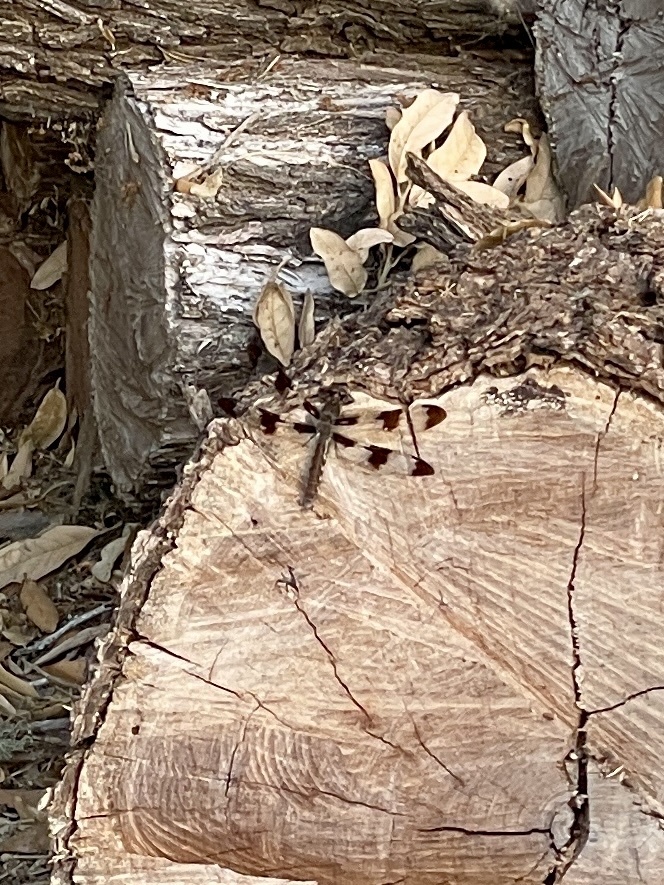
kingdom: Animalia
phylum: Arthropoda
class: Insecta
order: Odonata
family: Libellulidae
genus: Plathemis
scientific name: Plathemis lydia
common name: Common whitetail
